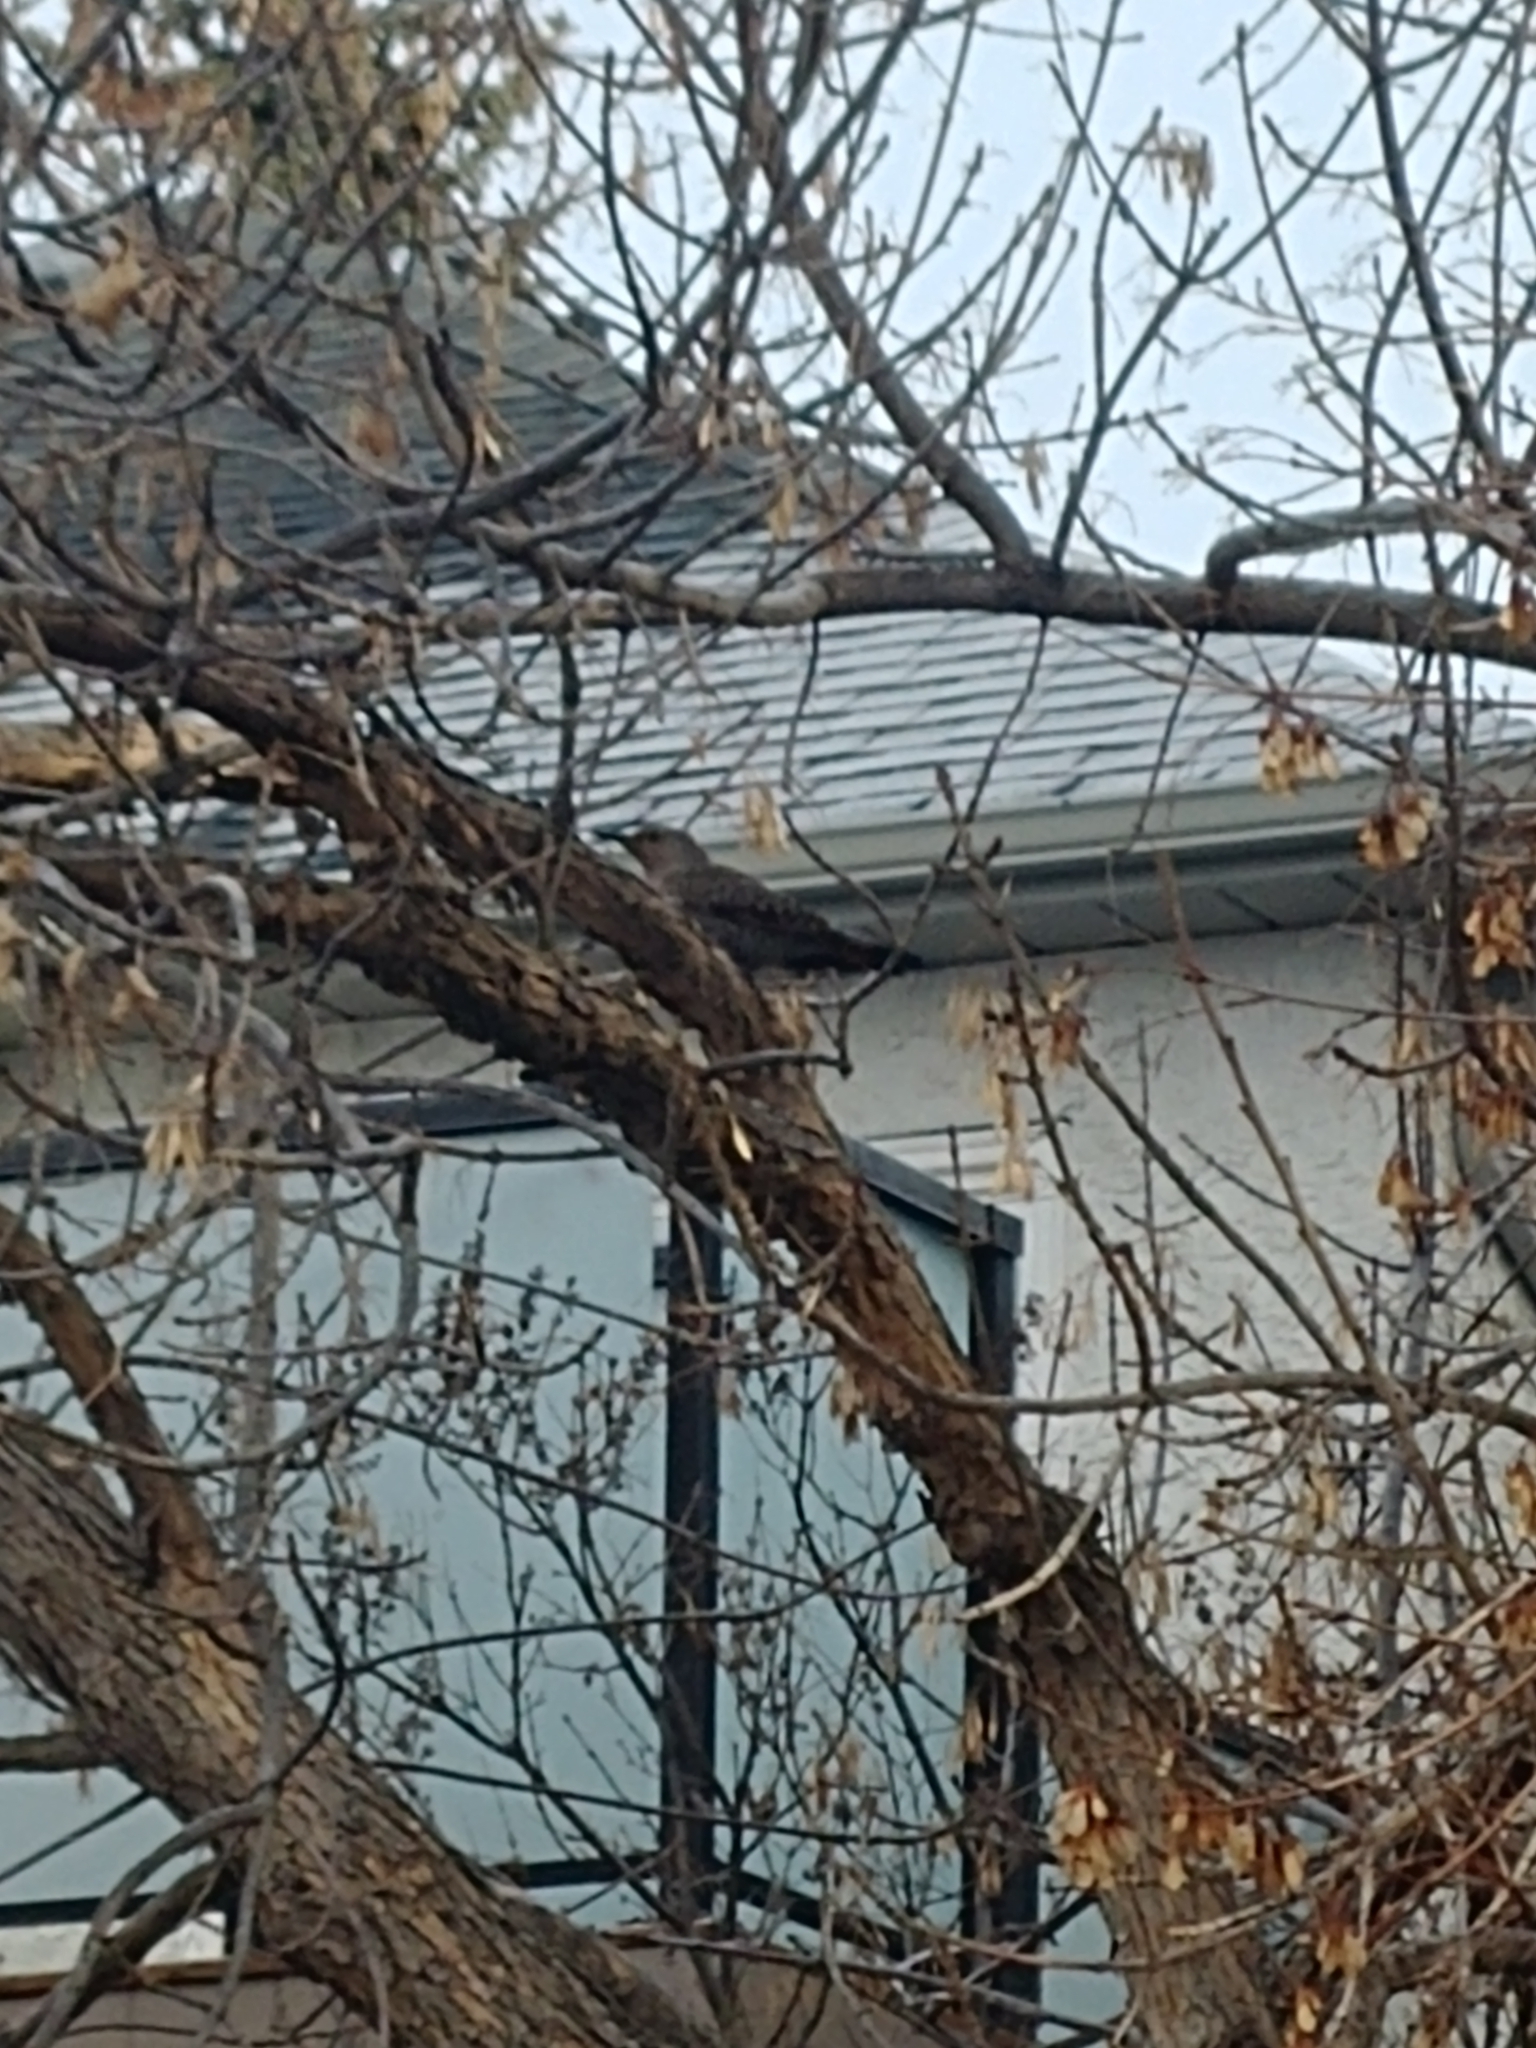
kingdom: Animalia
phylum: Chordata
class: Aves
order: Piciformes
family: Picidae
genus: Colaptes
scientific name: Colaptes auratus
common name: Northern flicker
